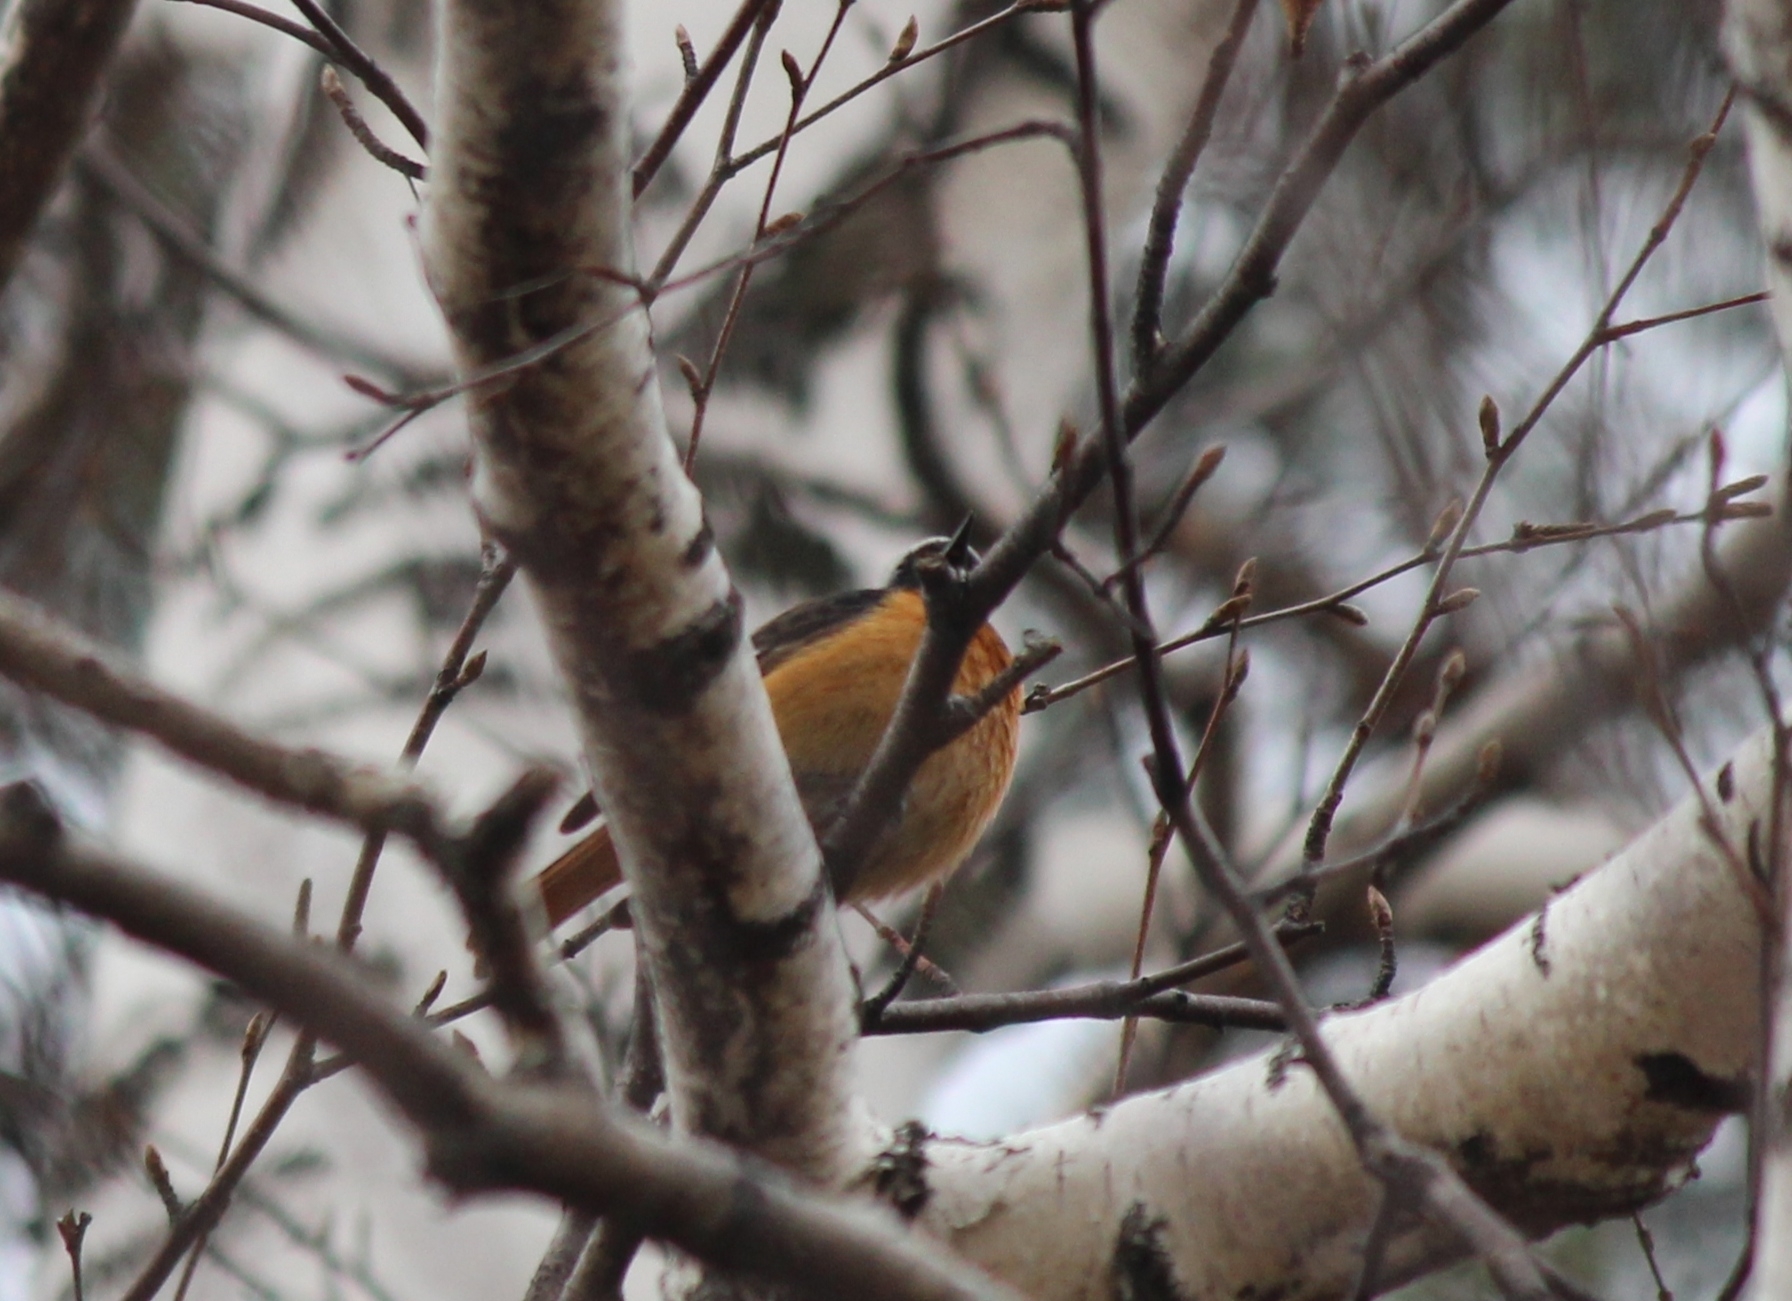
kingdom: Animalia
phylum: Chordata
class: Aves
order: Passeriformes
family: Muscicapidae
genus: Phoenicurus
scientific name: Phoenicurus auroreus
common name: Daurian redstart
